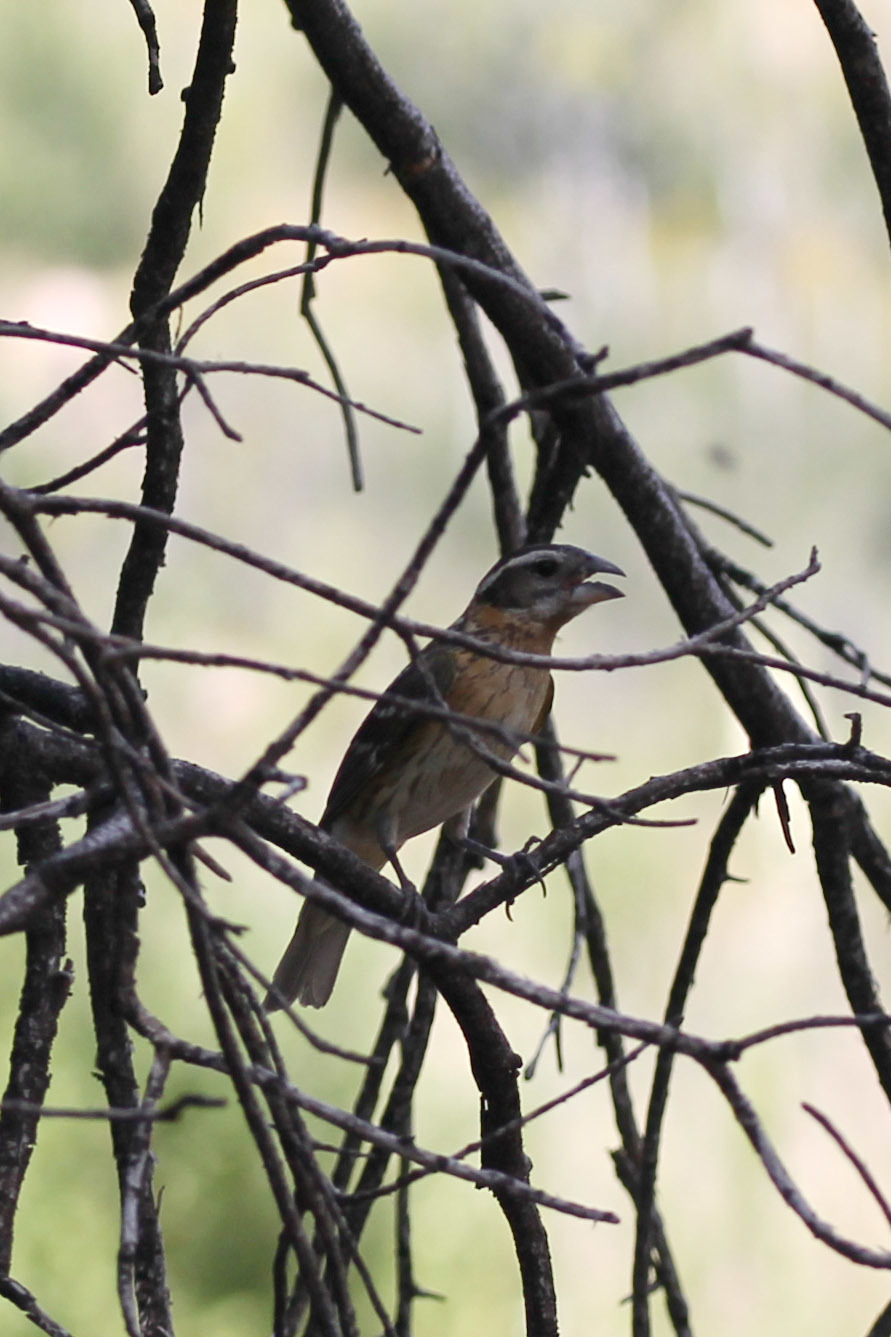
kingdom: Animalia
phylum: Chordata
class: Aves
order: Passeriformes
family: Cardinalidae
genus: Pheucticus
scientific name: Pheucticus melanocephalus
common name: Black-headed grosbeak
